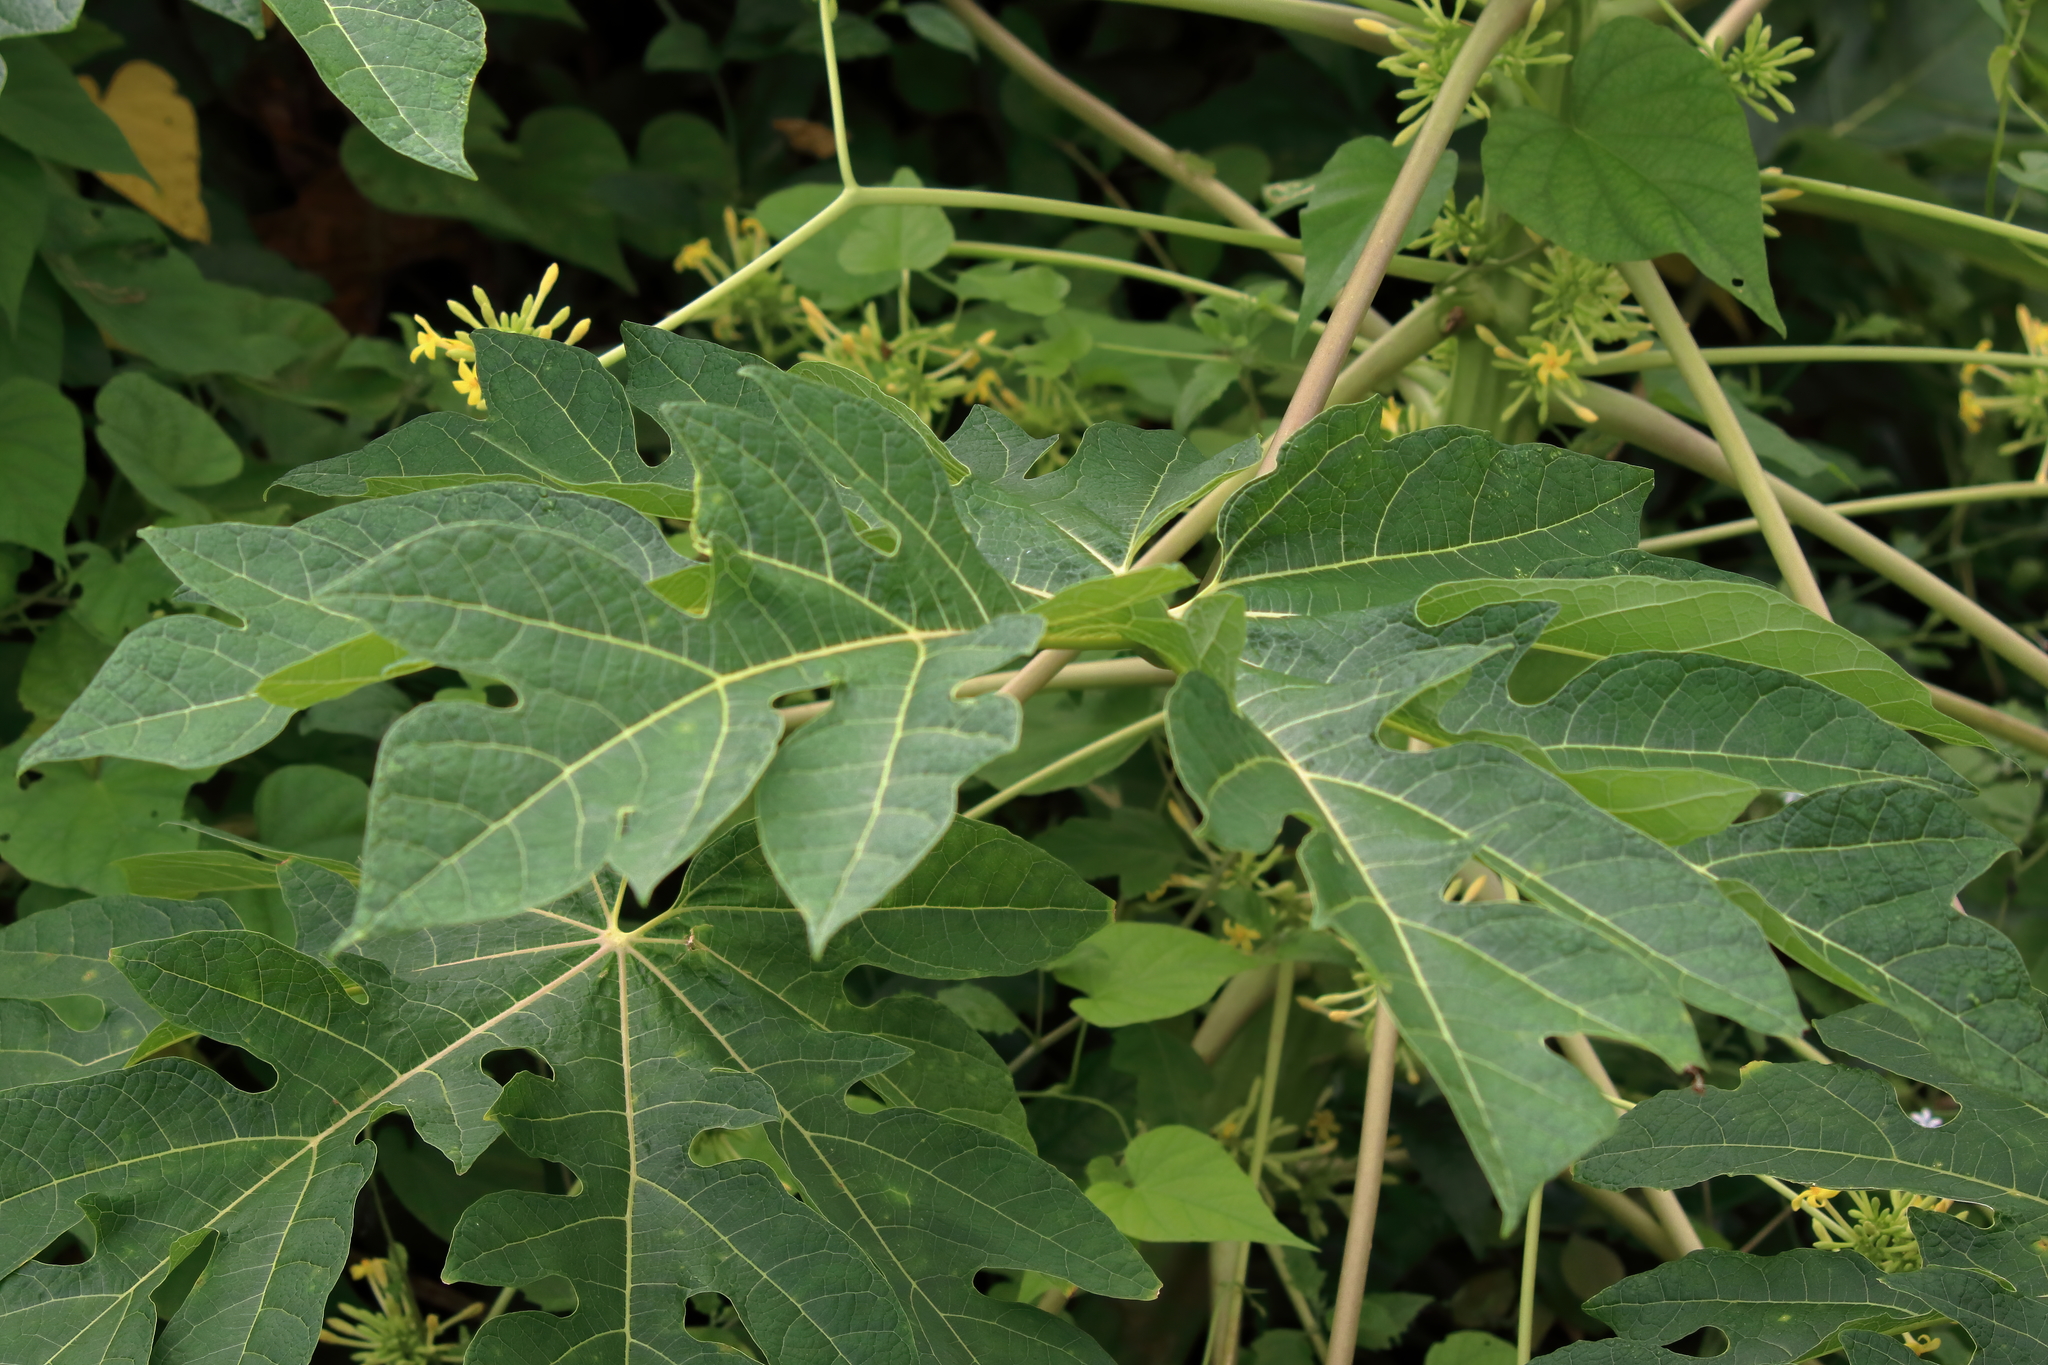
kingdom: Plantae
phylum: Tracheophyta
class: Magnoliopsida
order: Brassicales
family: Caricaceae
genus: Carica
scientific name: Carica papaya
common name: Papaya
